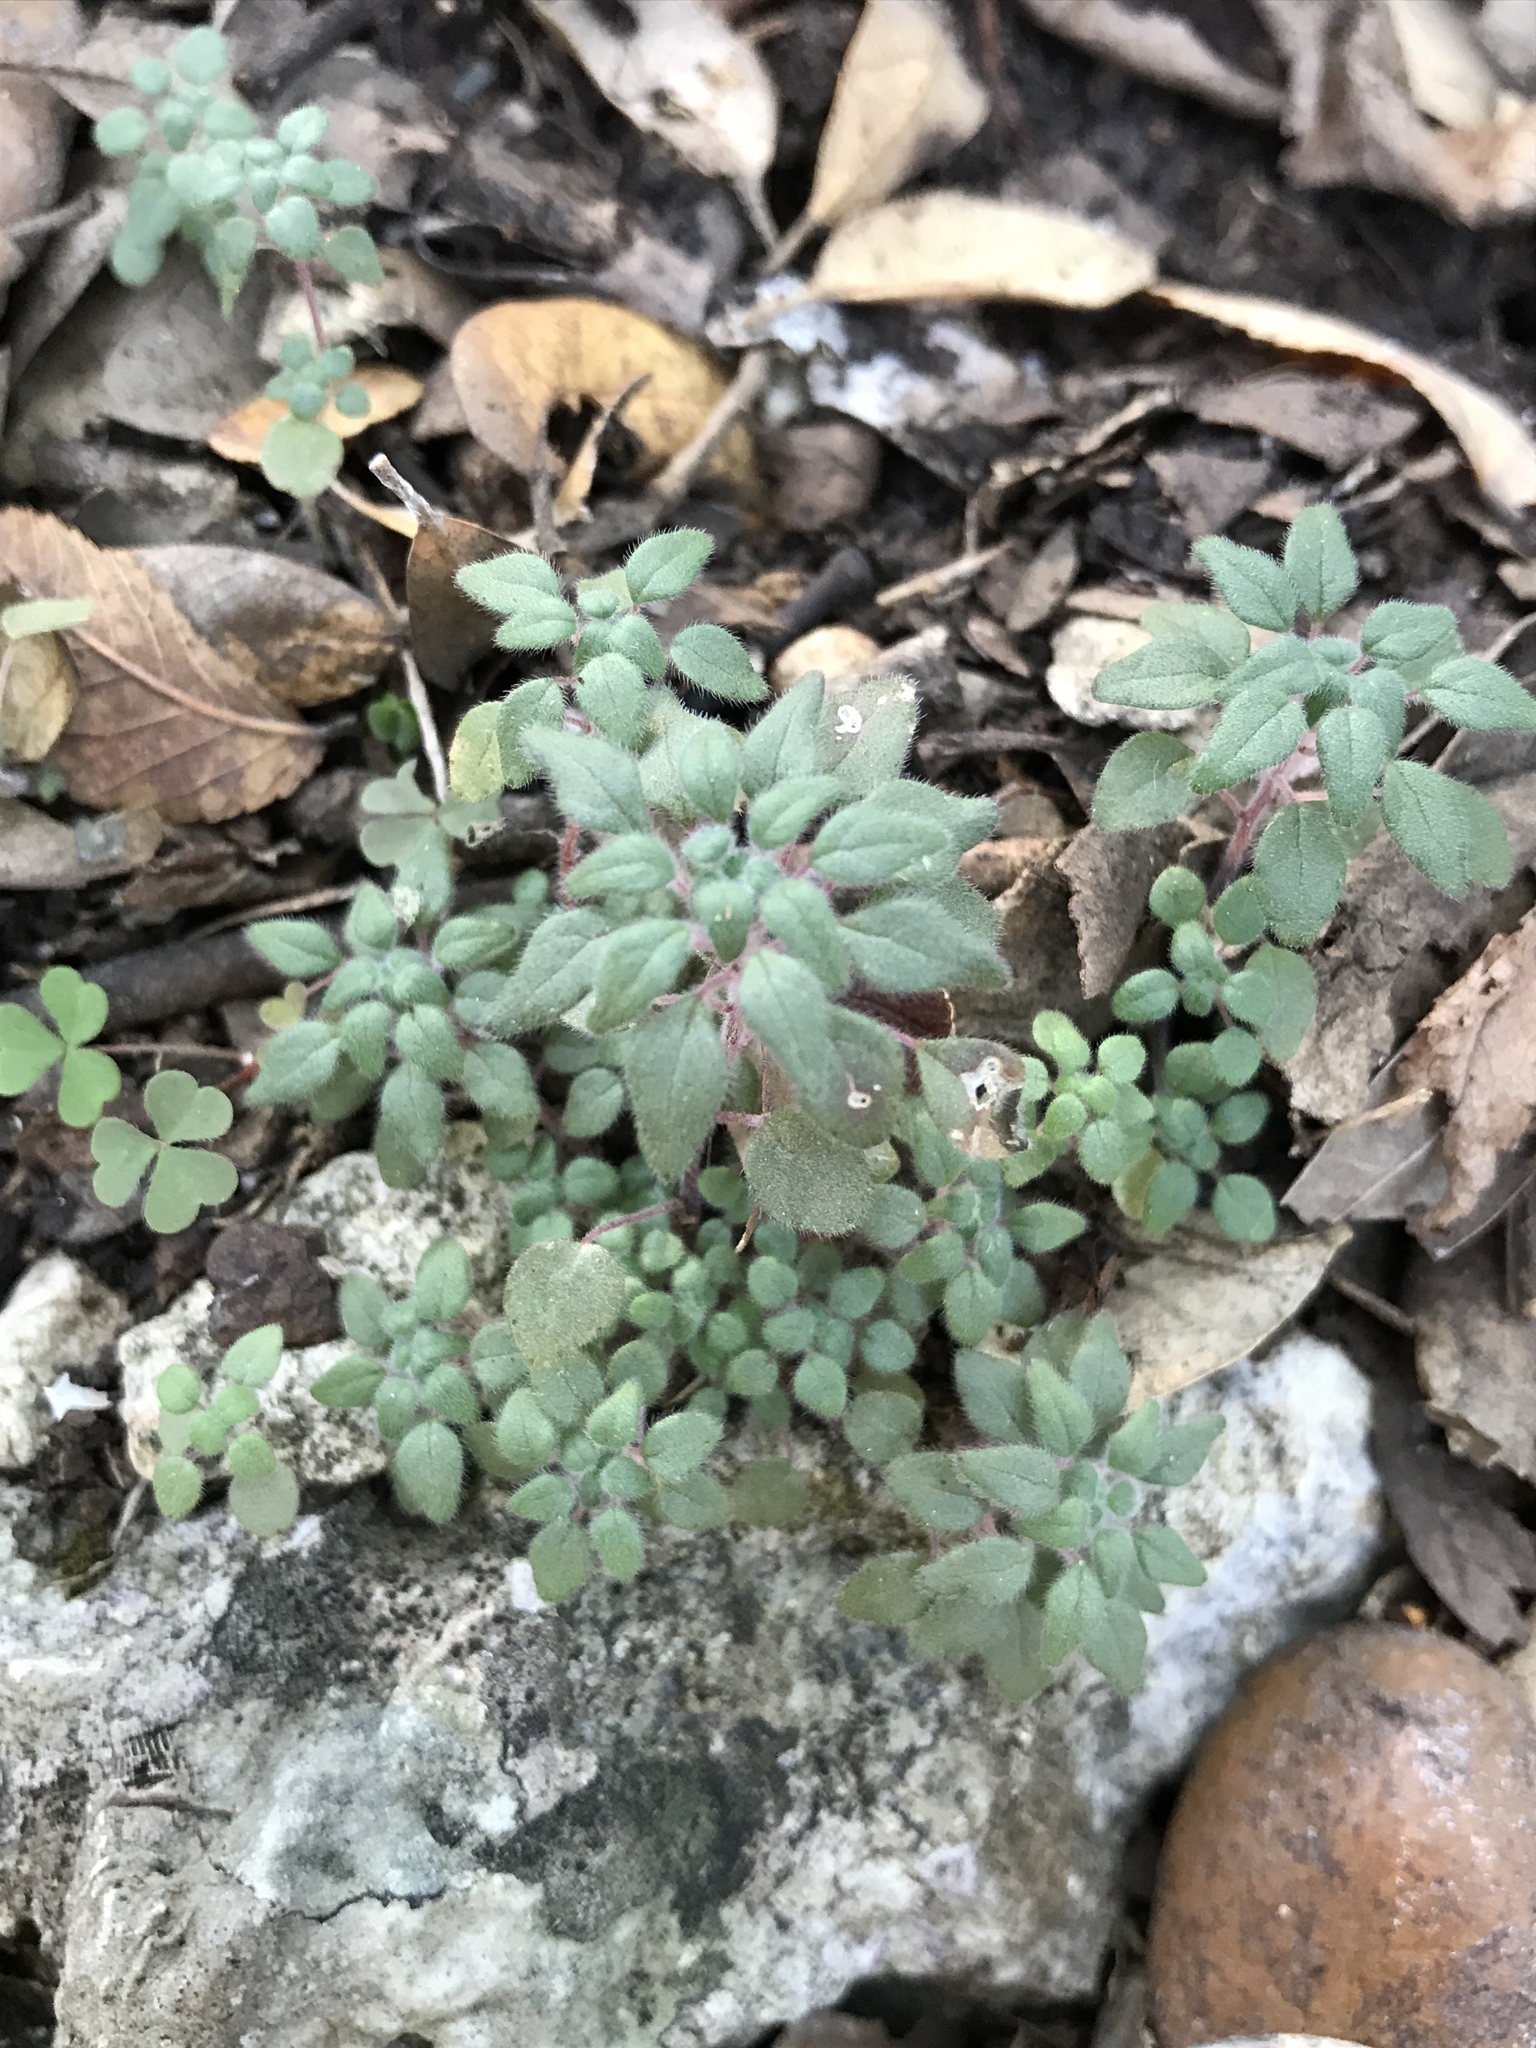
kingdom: Plantae
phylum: Tracheophyta
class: Magnoliopsida
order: Rosales
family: Urticaceae
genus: Parietaria
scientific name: Parietaria pensylvanica
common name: Pennsylvania pellitory
